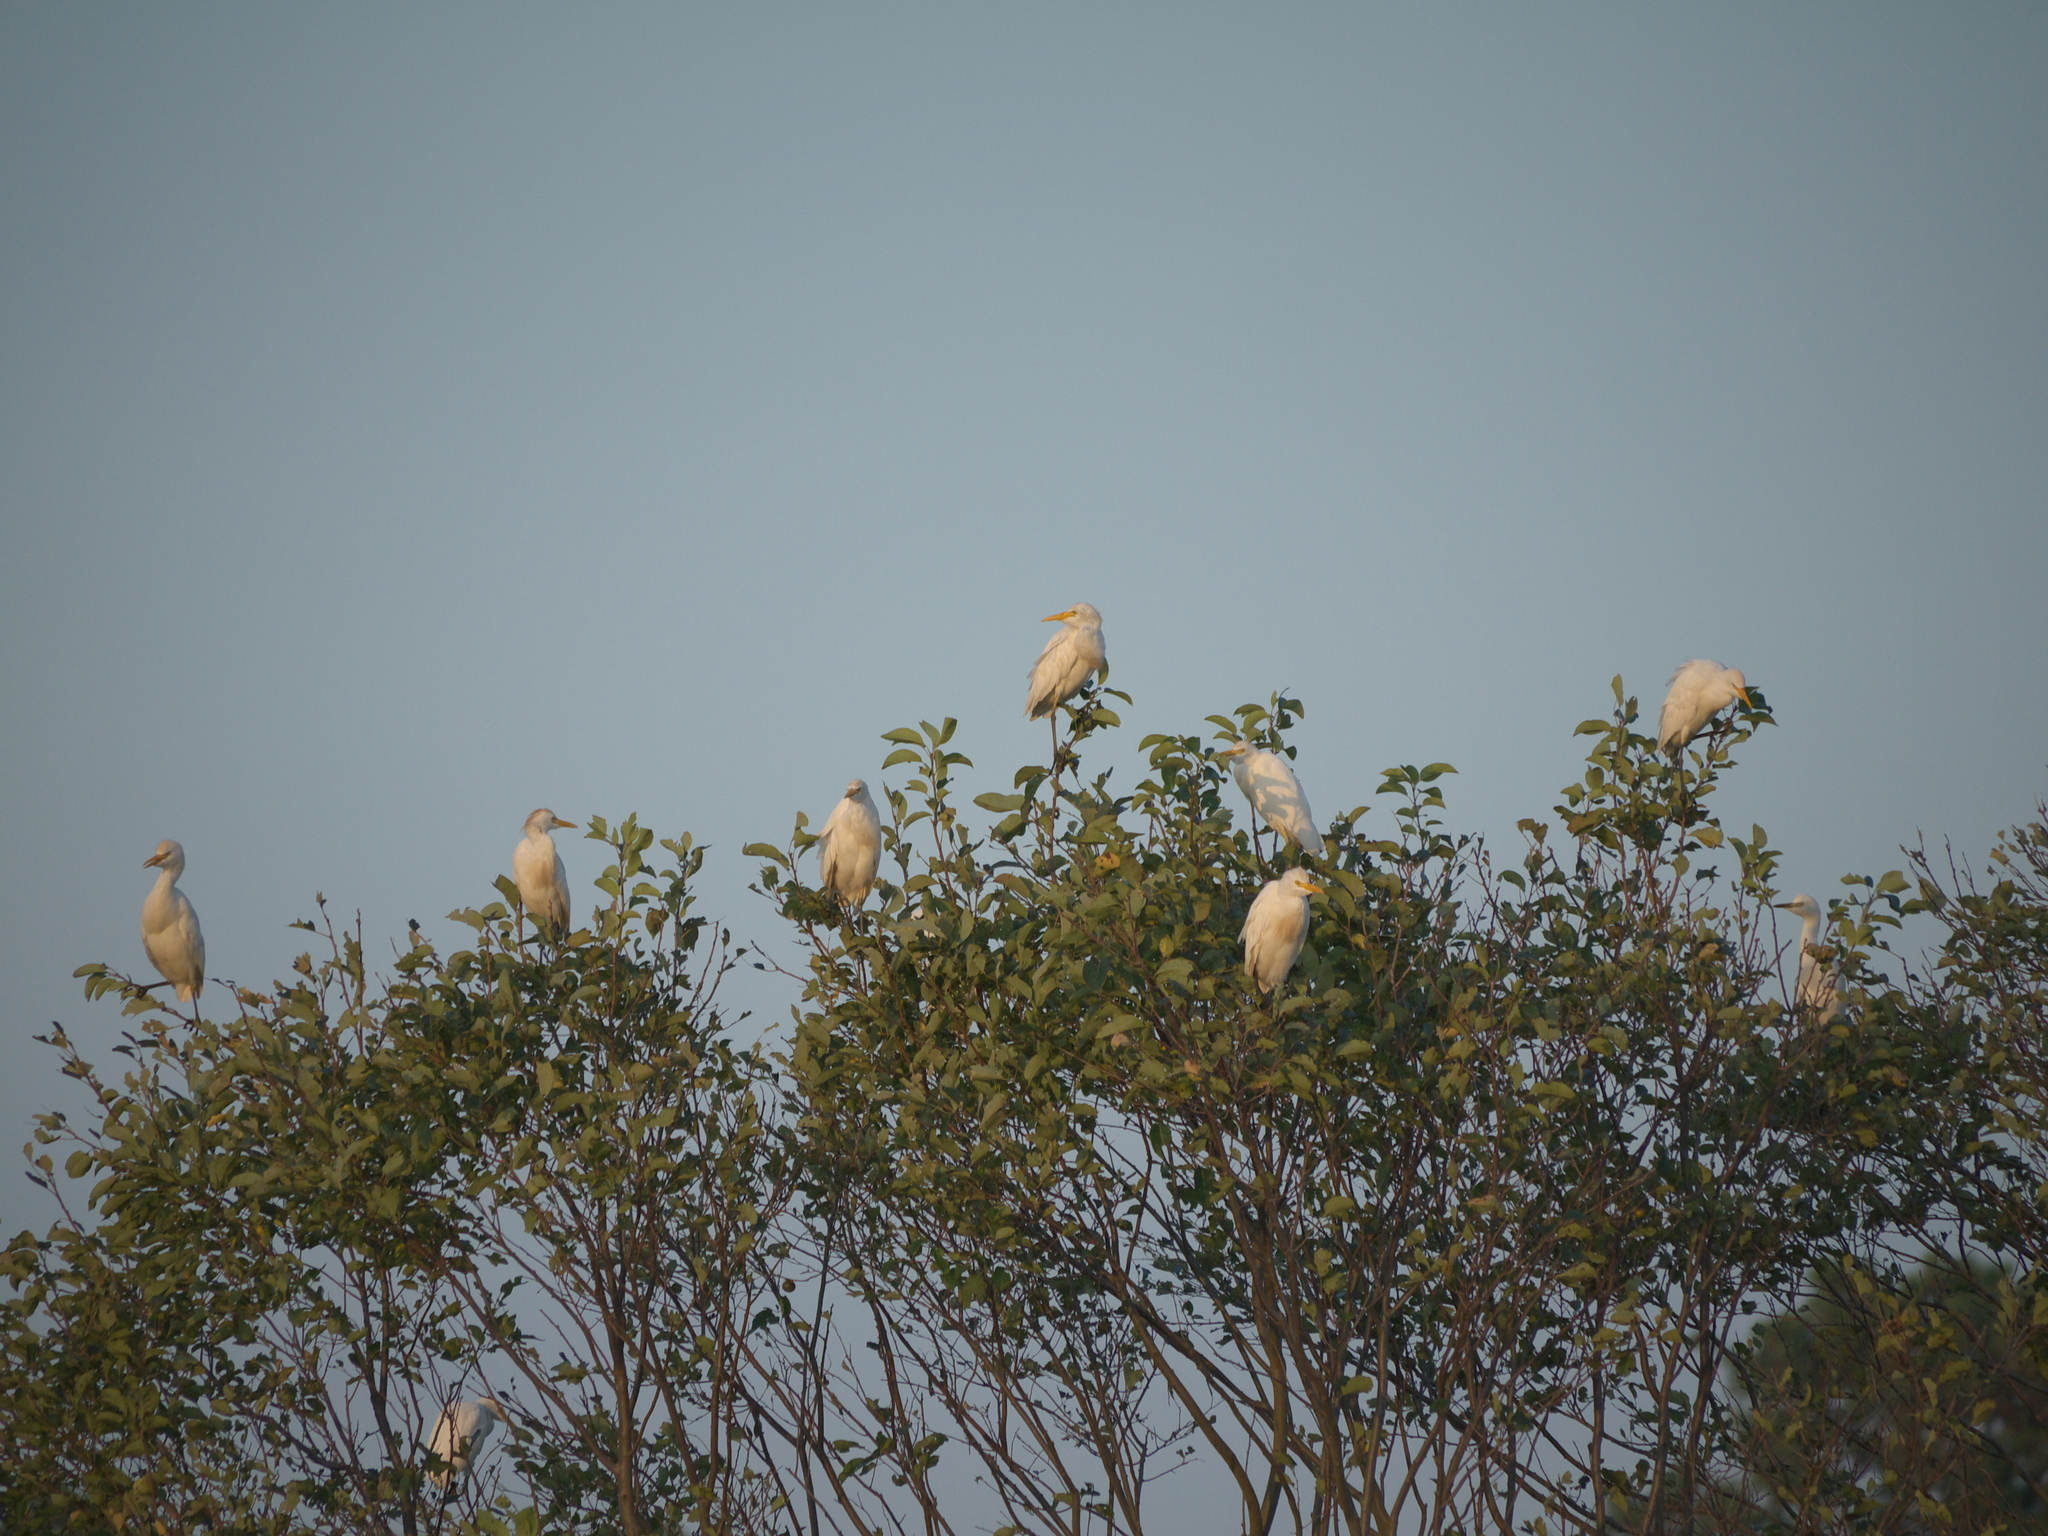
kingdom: Animalia
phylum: Chordata
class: Aves
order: Pelecaniformes
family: Ardeidae
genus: Bubulcus
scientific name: Bubulcus ibis
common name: Cattle egret
